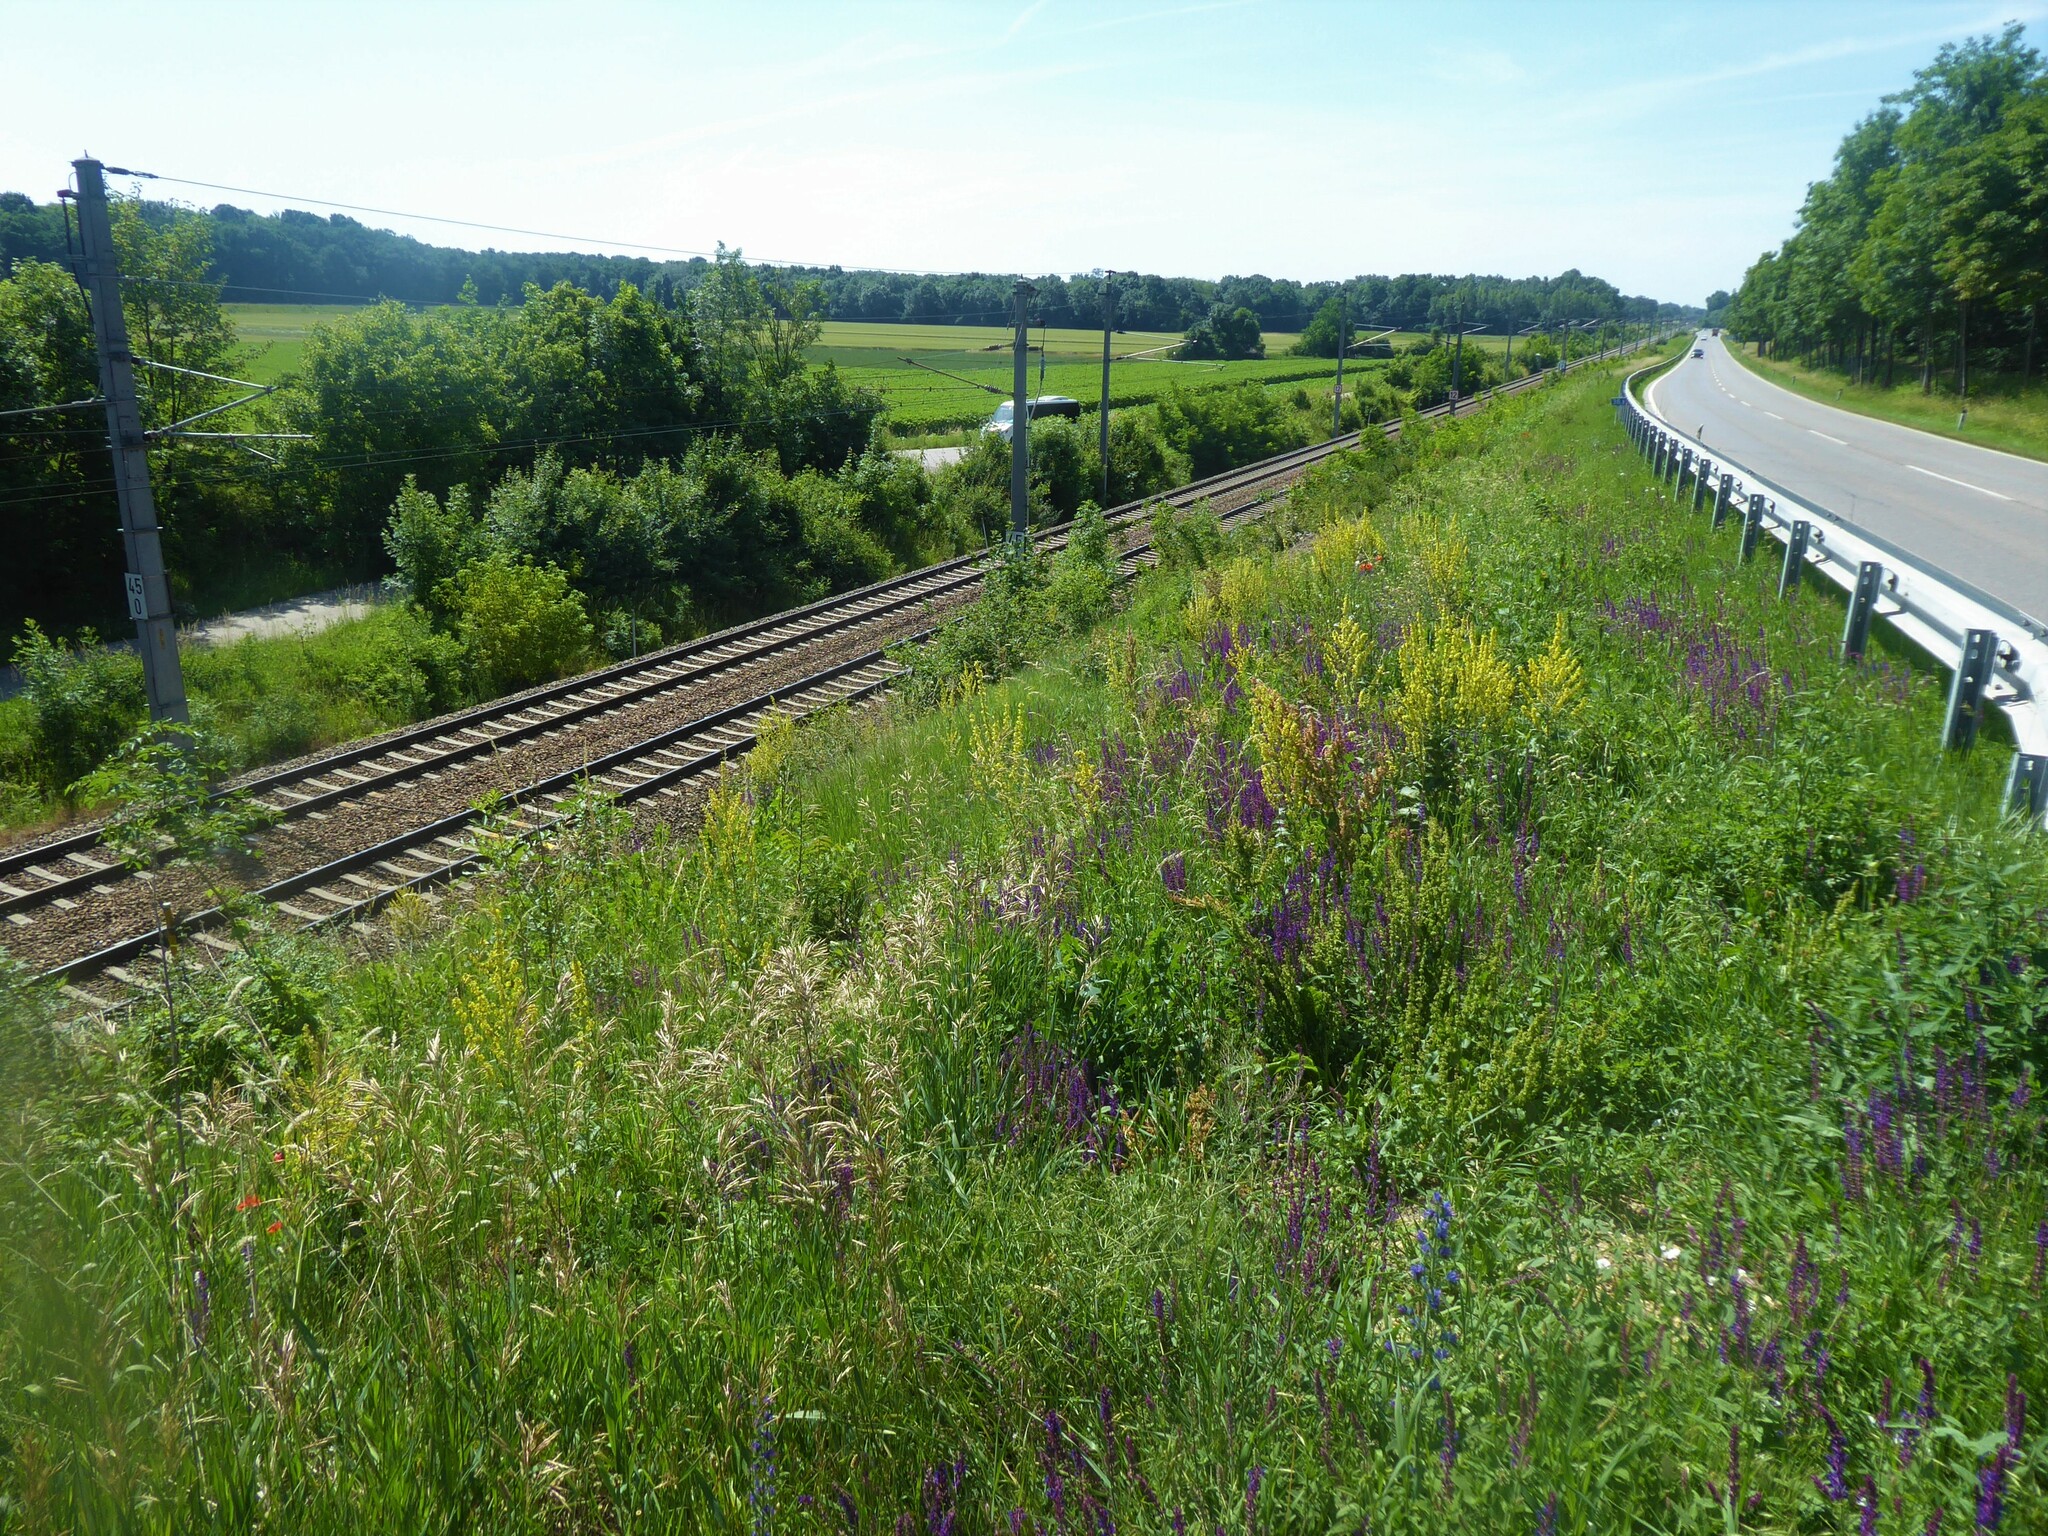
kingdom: Plantae
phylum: Tracheophyta
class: Magnoliopsida
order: Lamiales
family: Lamiaceae
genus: Salvia
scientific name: Salvia nemorosa
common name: Balkan clary
